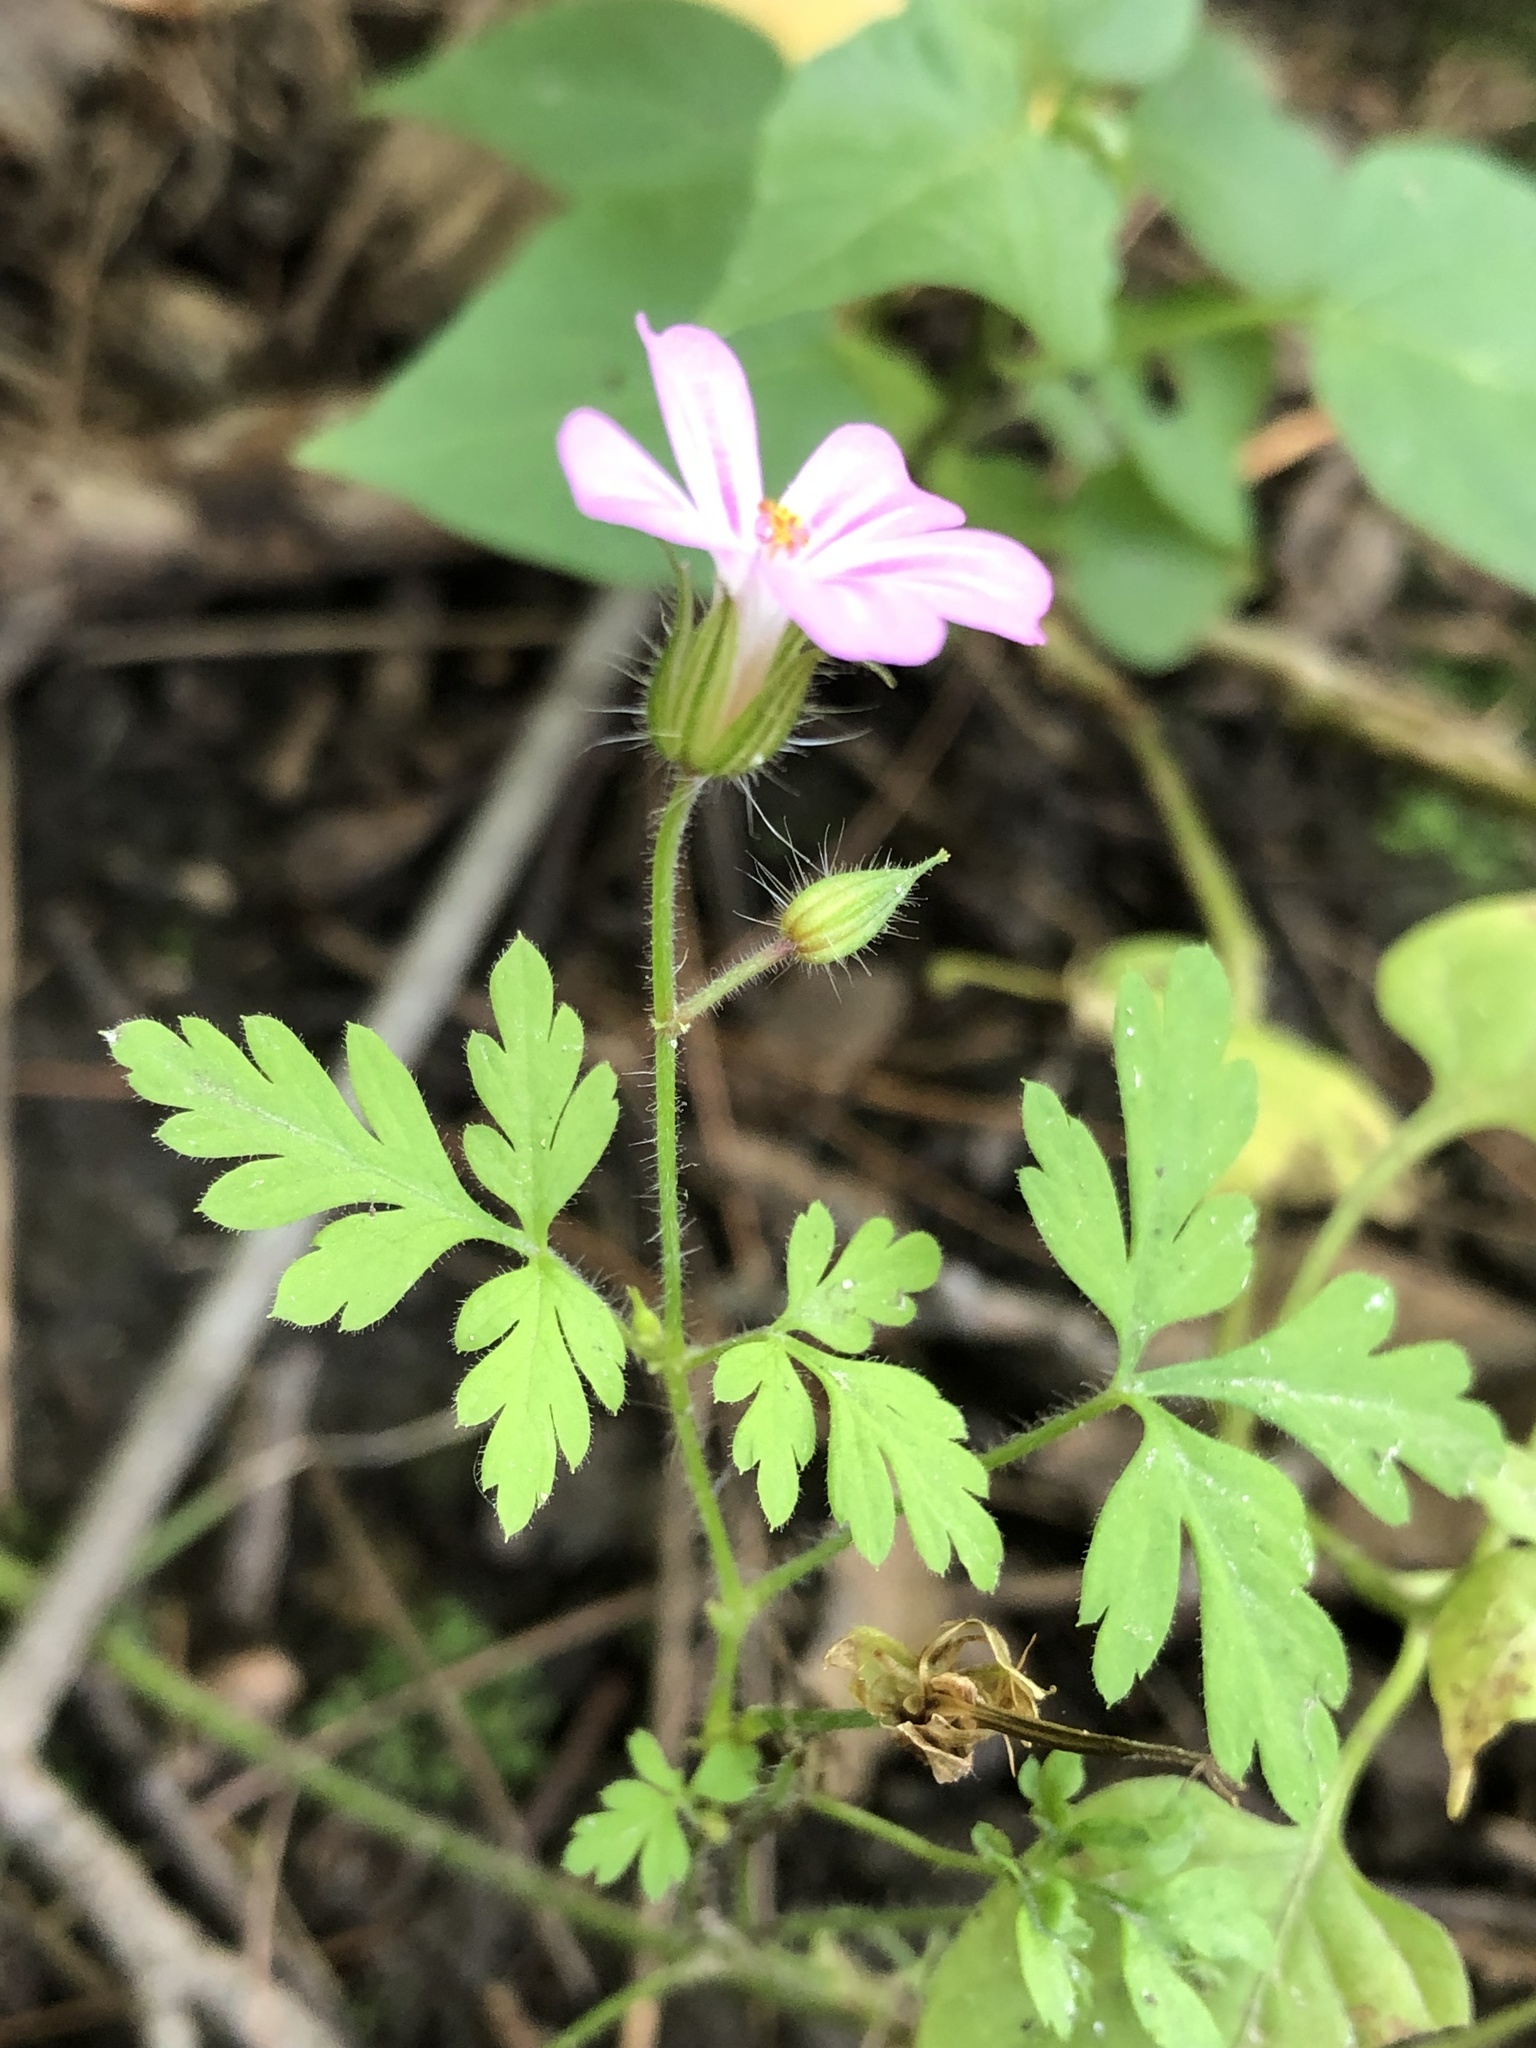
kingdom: Plantae
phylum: Tracheophyta
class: Magnoliopsida
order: Geraniales
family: Geraniaceae
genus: Geranium
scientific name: Geranium robertianum
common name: Herb-robert
